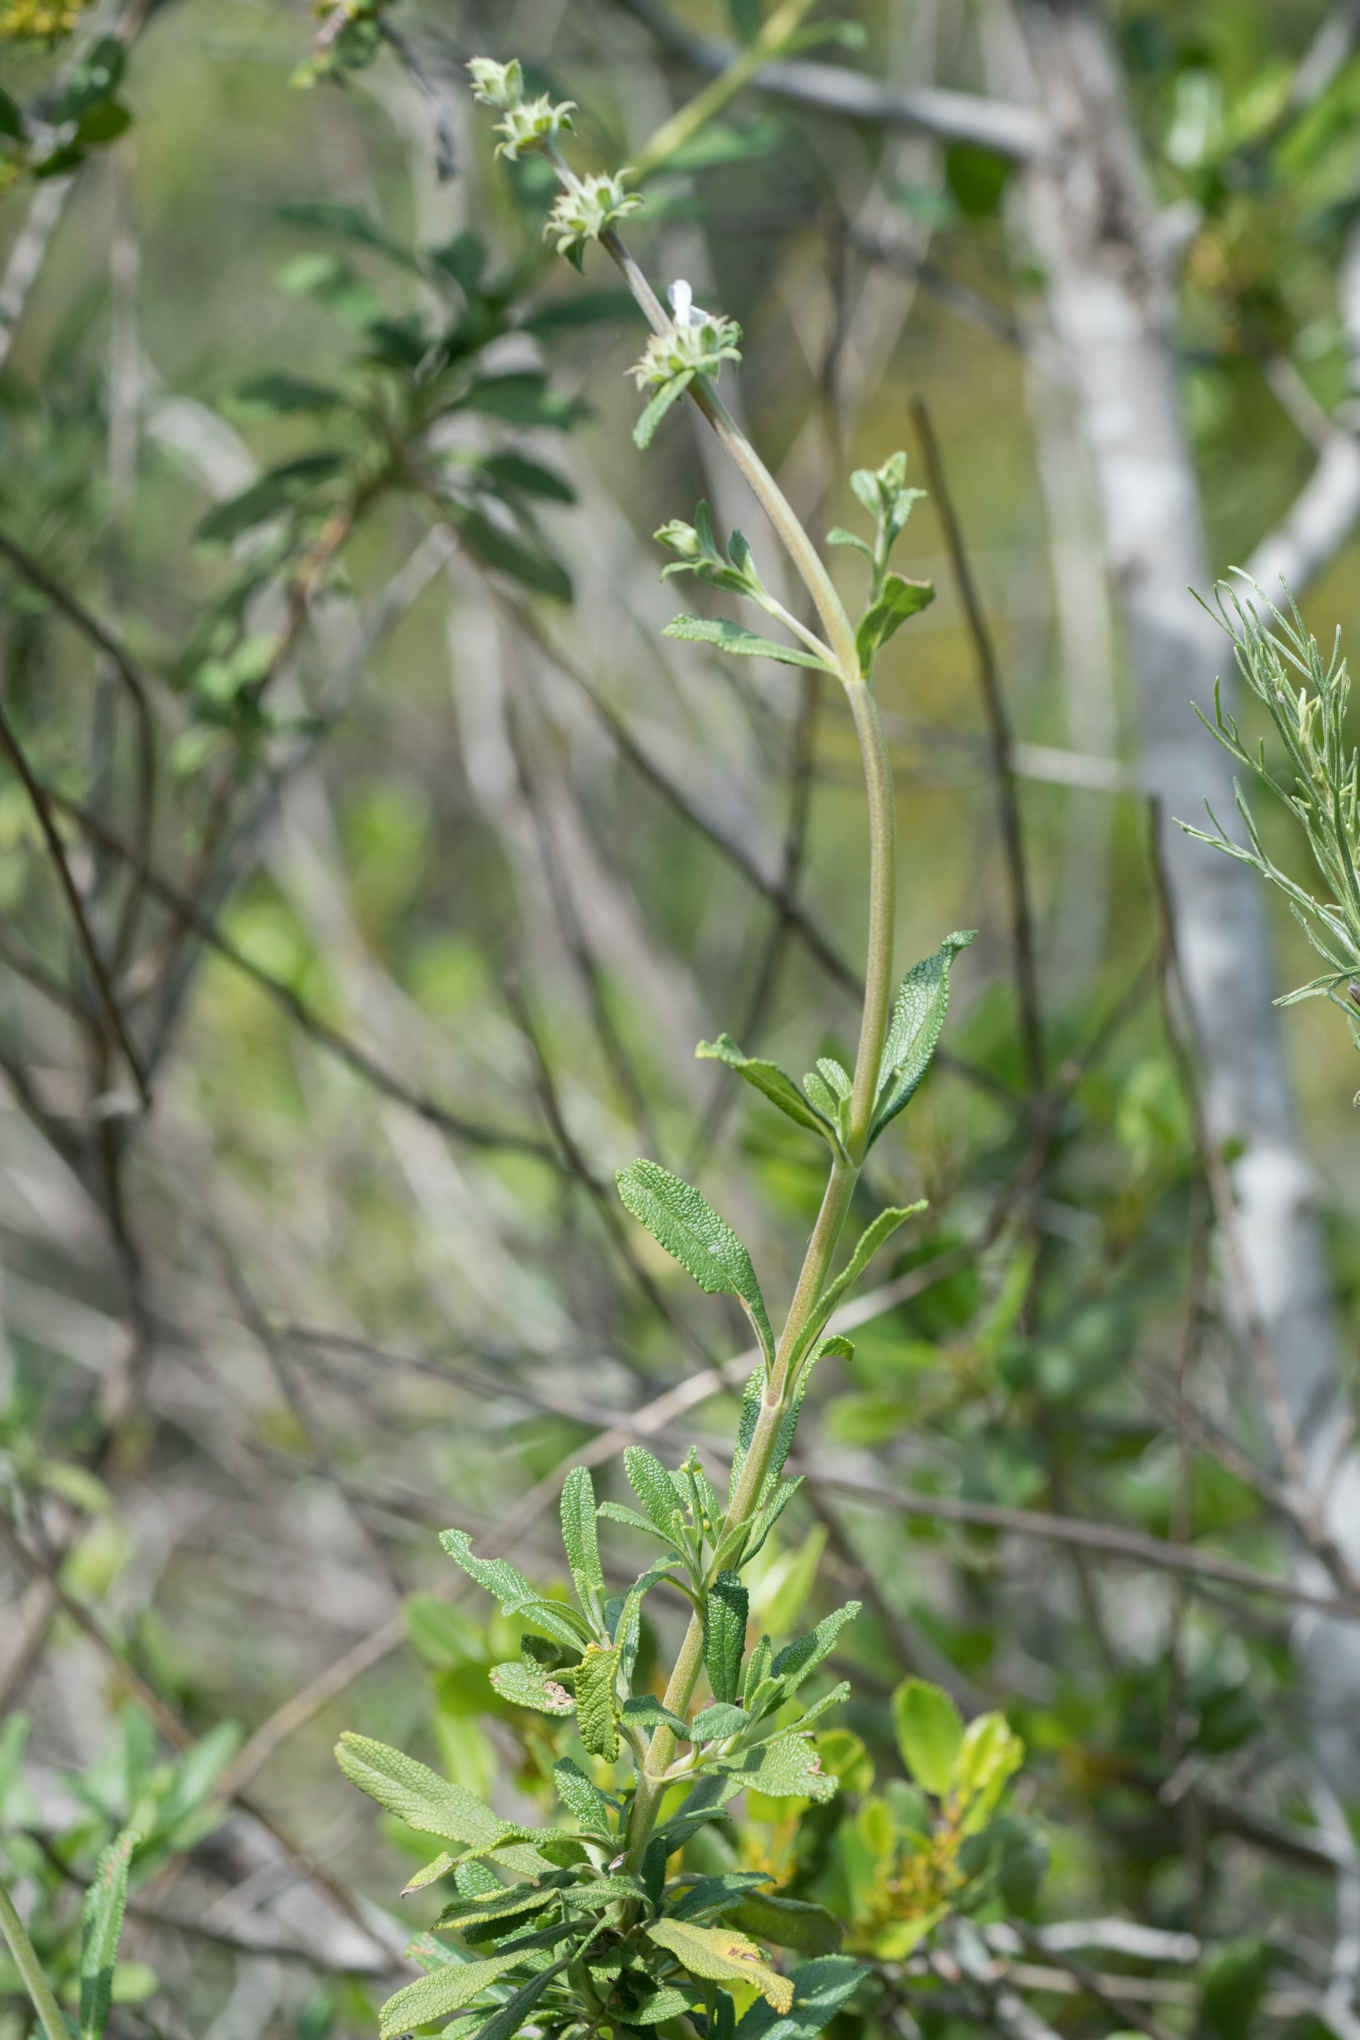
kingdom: Plantae
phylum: Tracheophyta
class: Magnoliopsida
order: Lamiales
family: Lamiaceae
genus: Salvia
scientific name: Salvia mellifera
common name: Black sage
